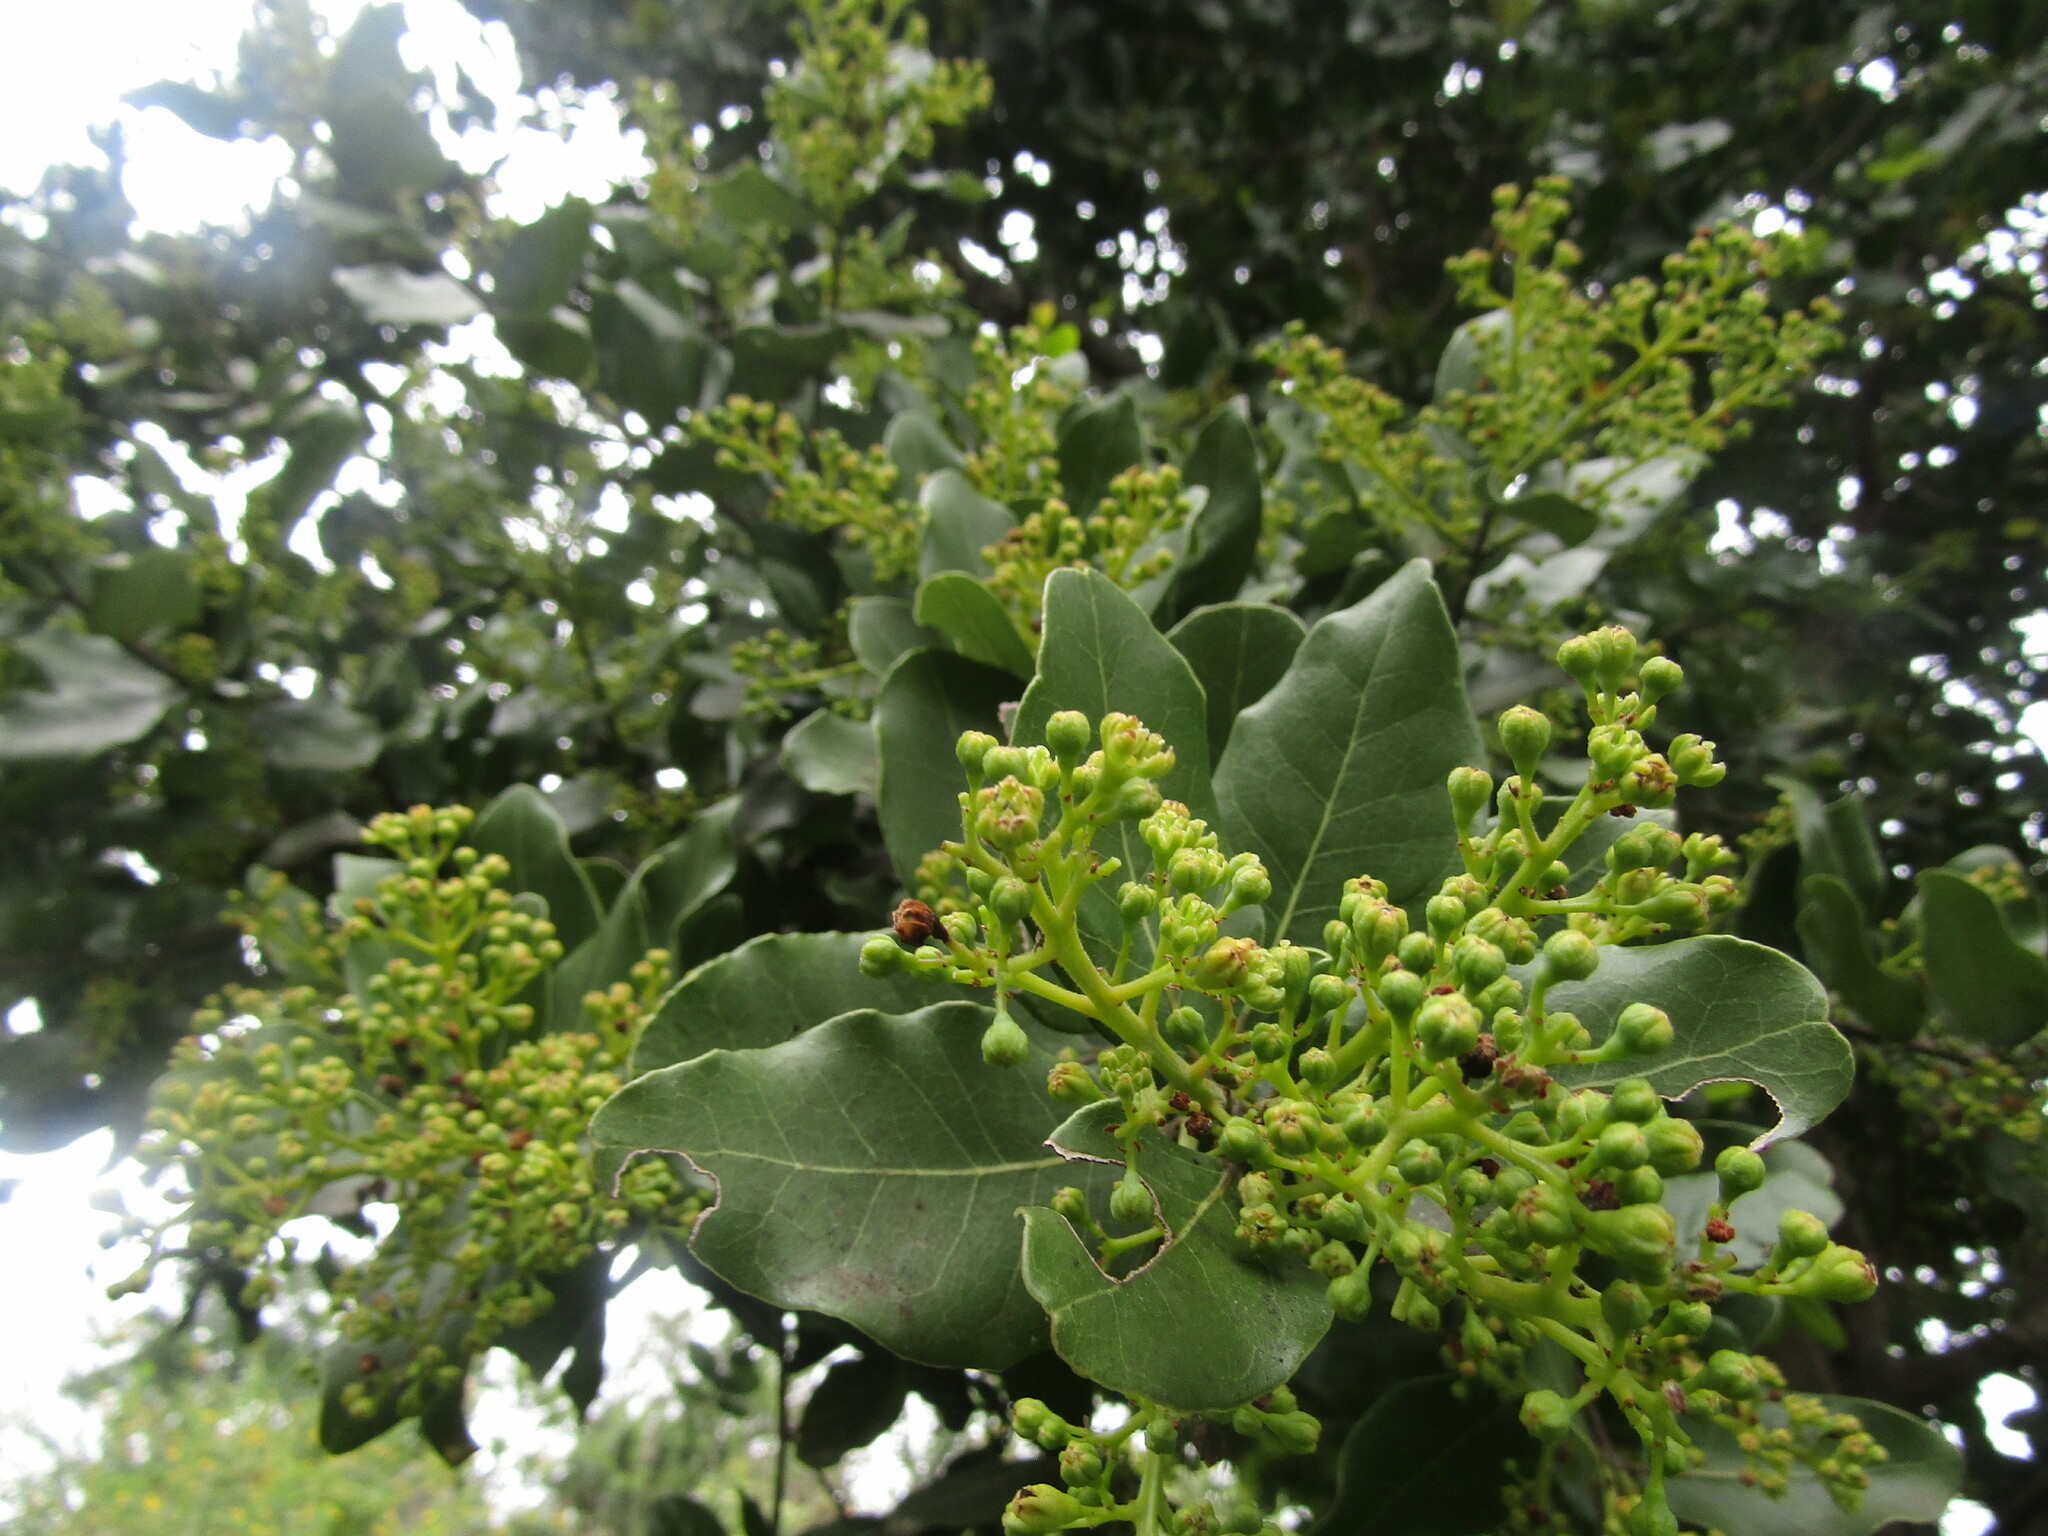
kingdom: Plantae
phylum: Tracheophyta
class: Magnoliopsida
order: Laurales
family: Lauraceae
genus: Cryptocarya
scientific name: Cryptocarya alba
